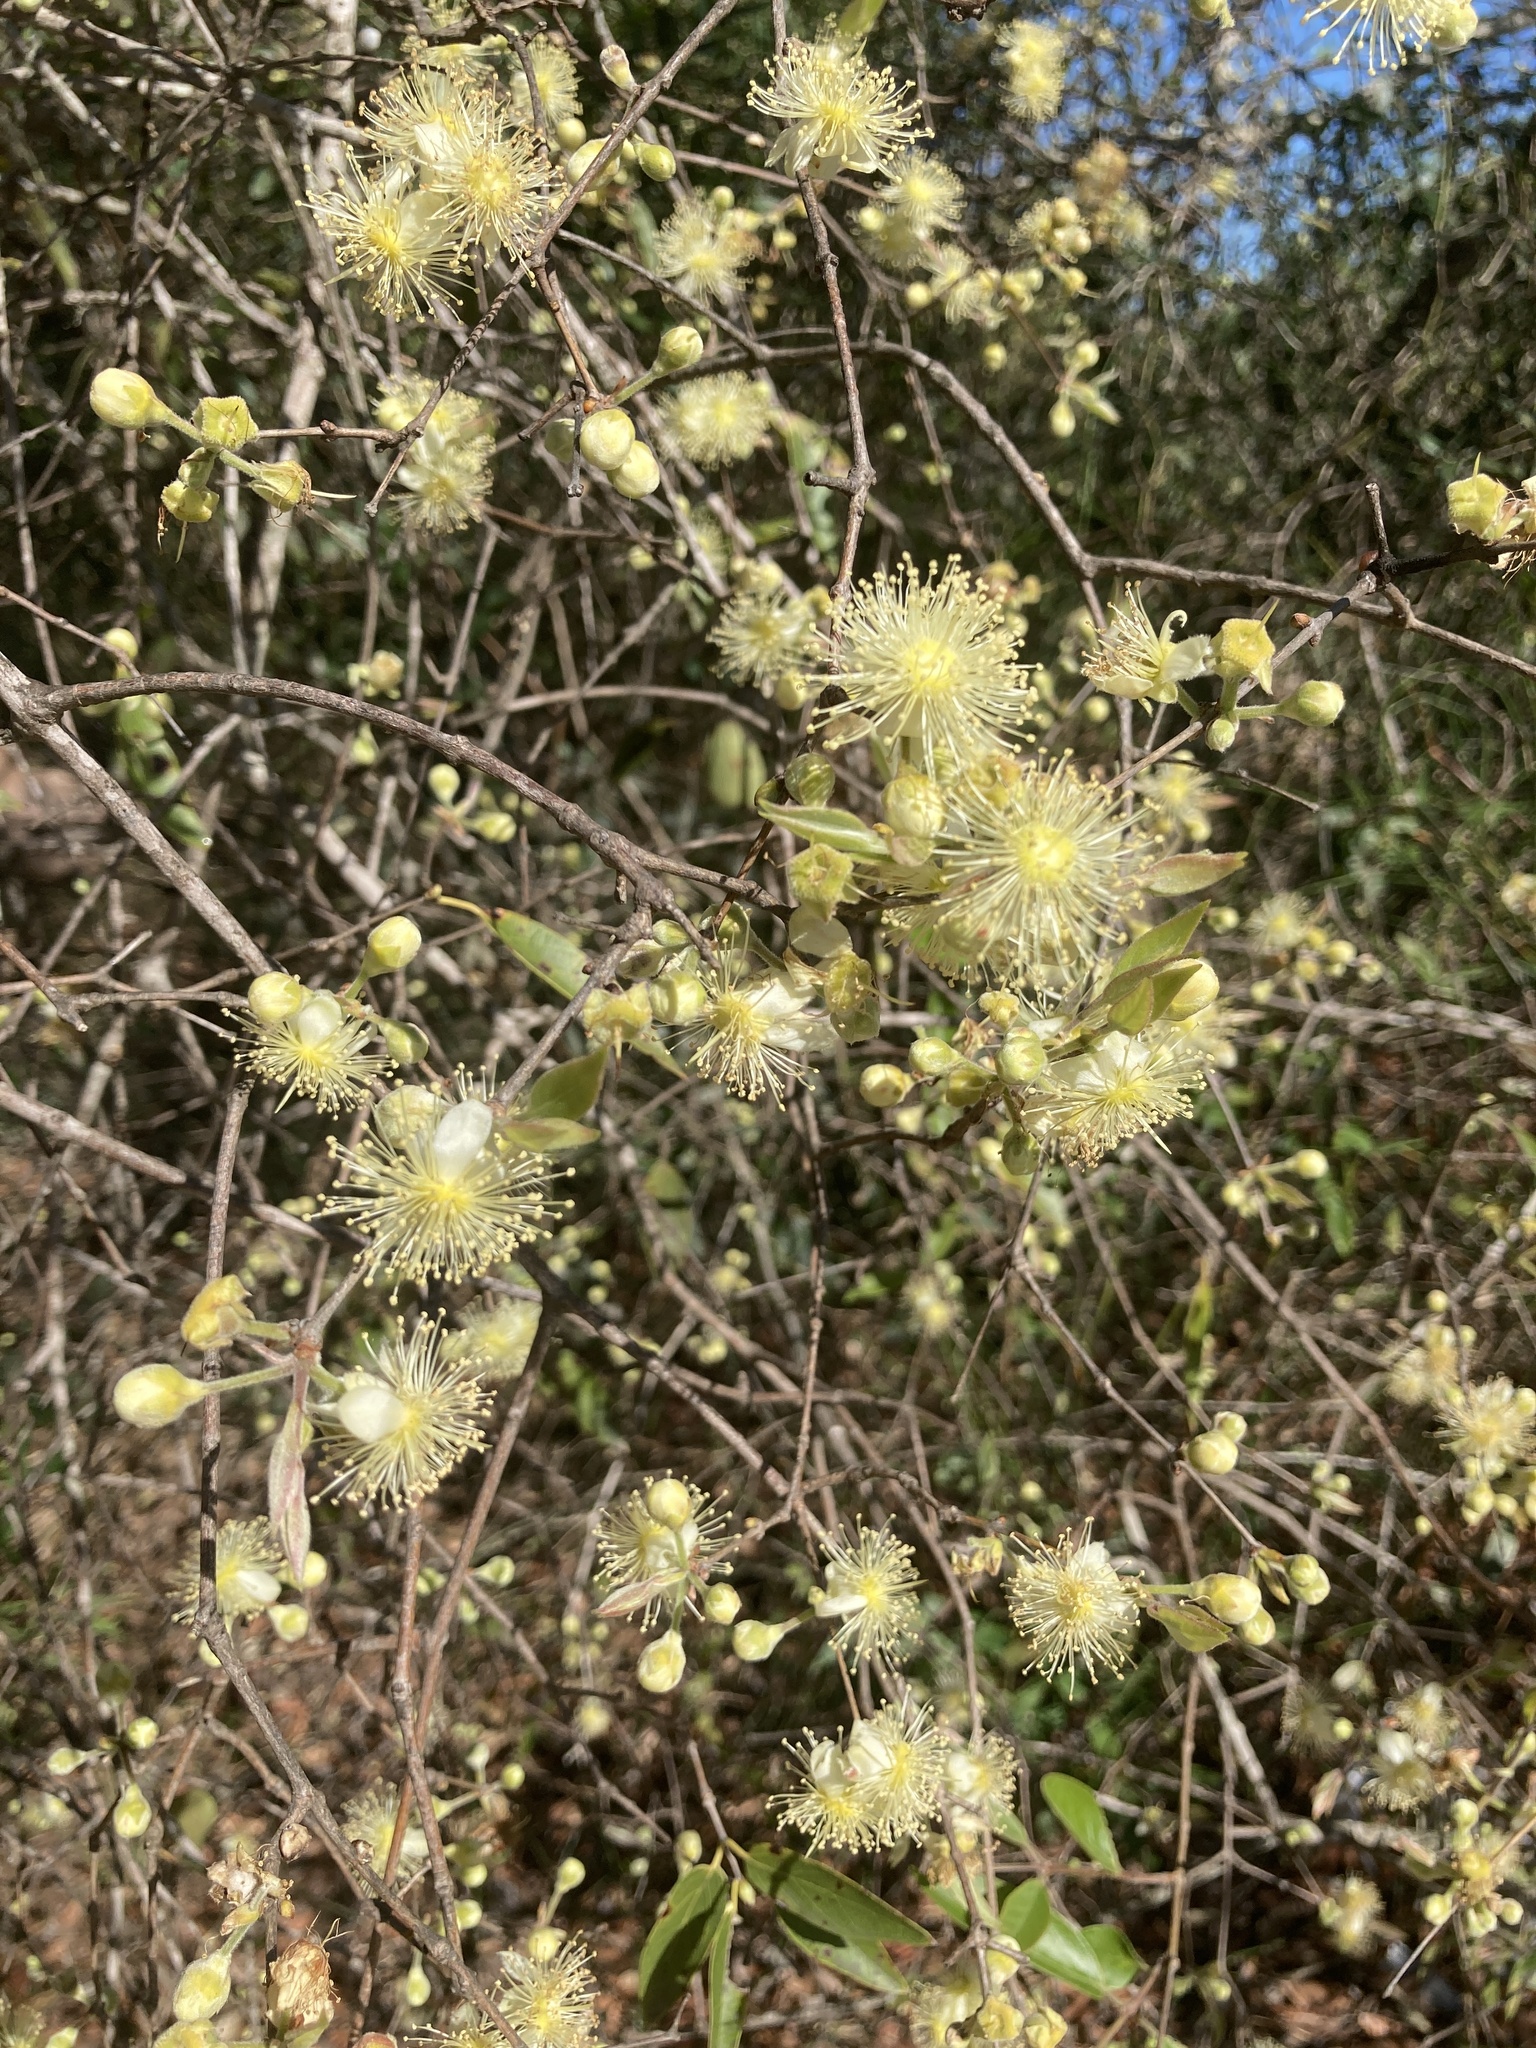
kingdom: Plantae
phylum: Tracheophyta
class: Magnoliopsida
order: Myrtales
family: Myrtaceae
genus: Eugenia
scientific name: Eugenia myrcianthes
